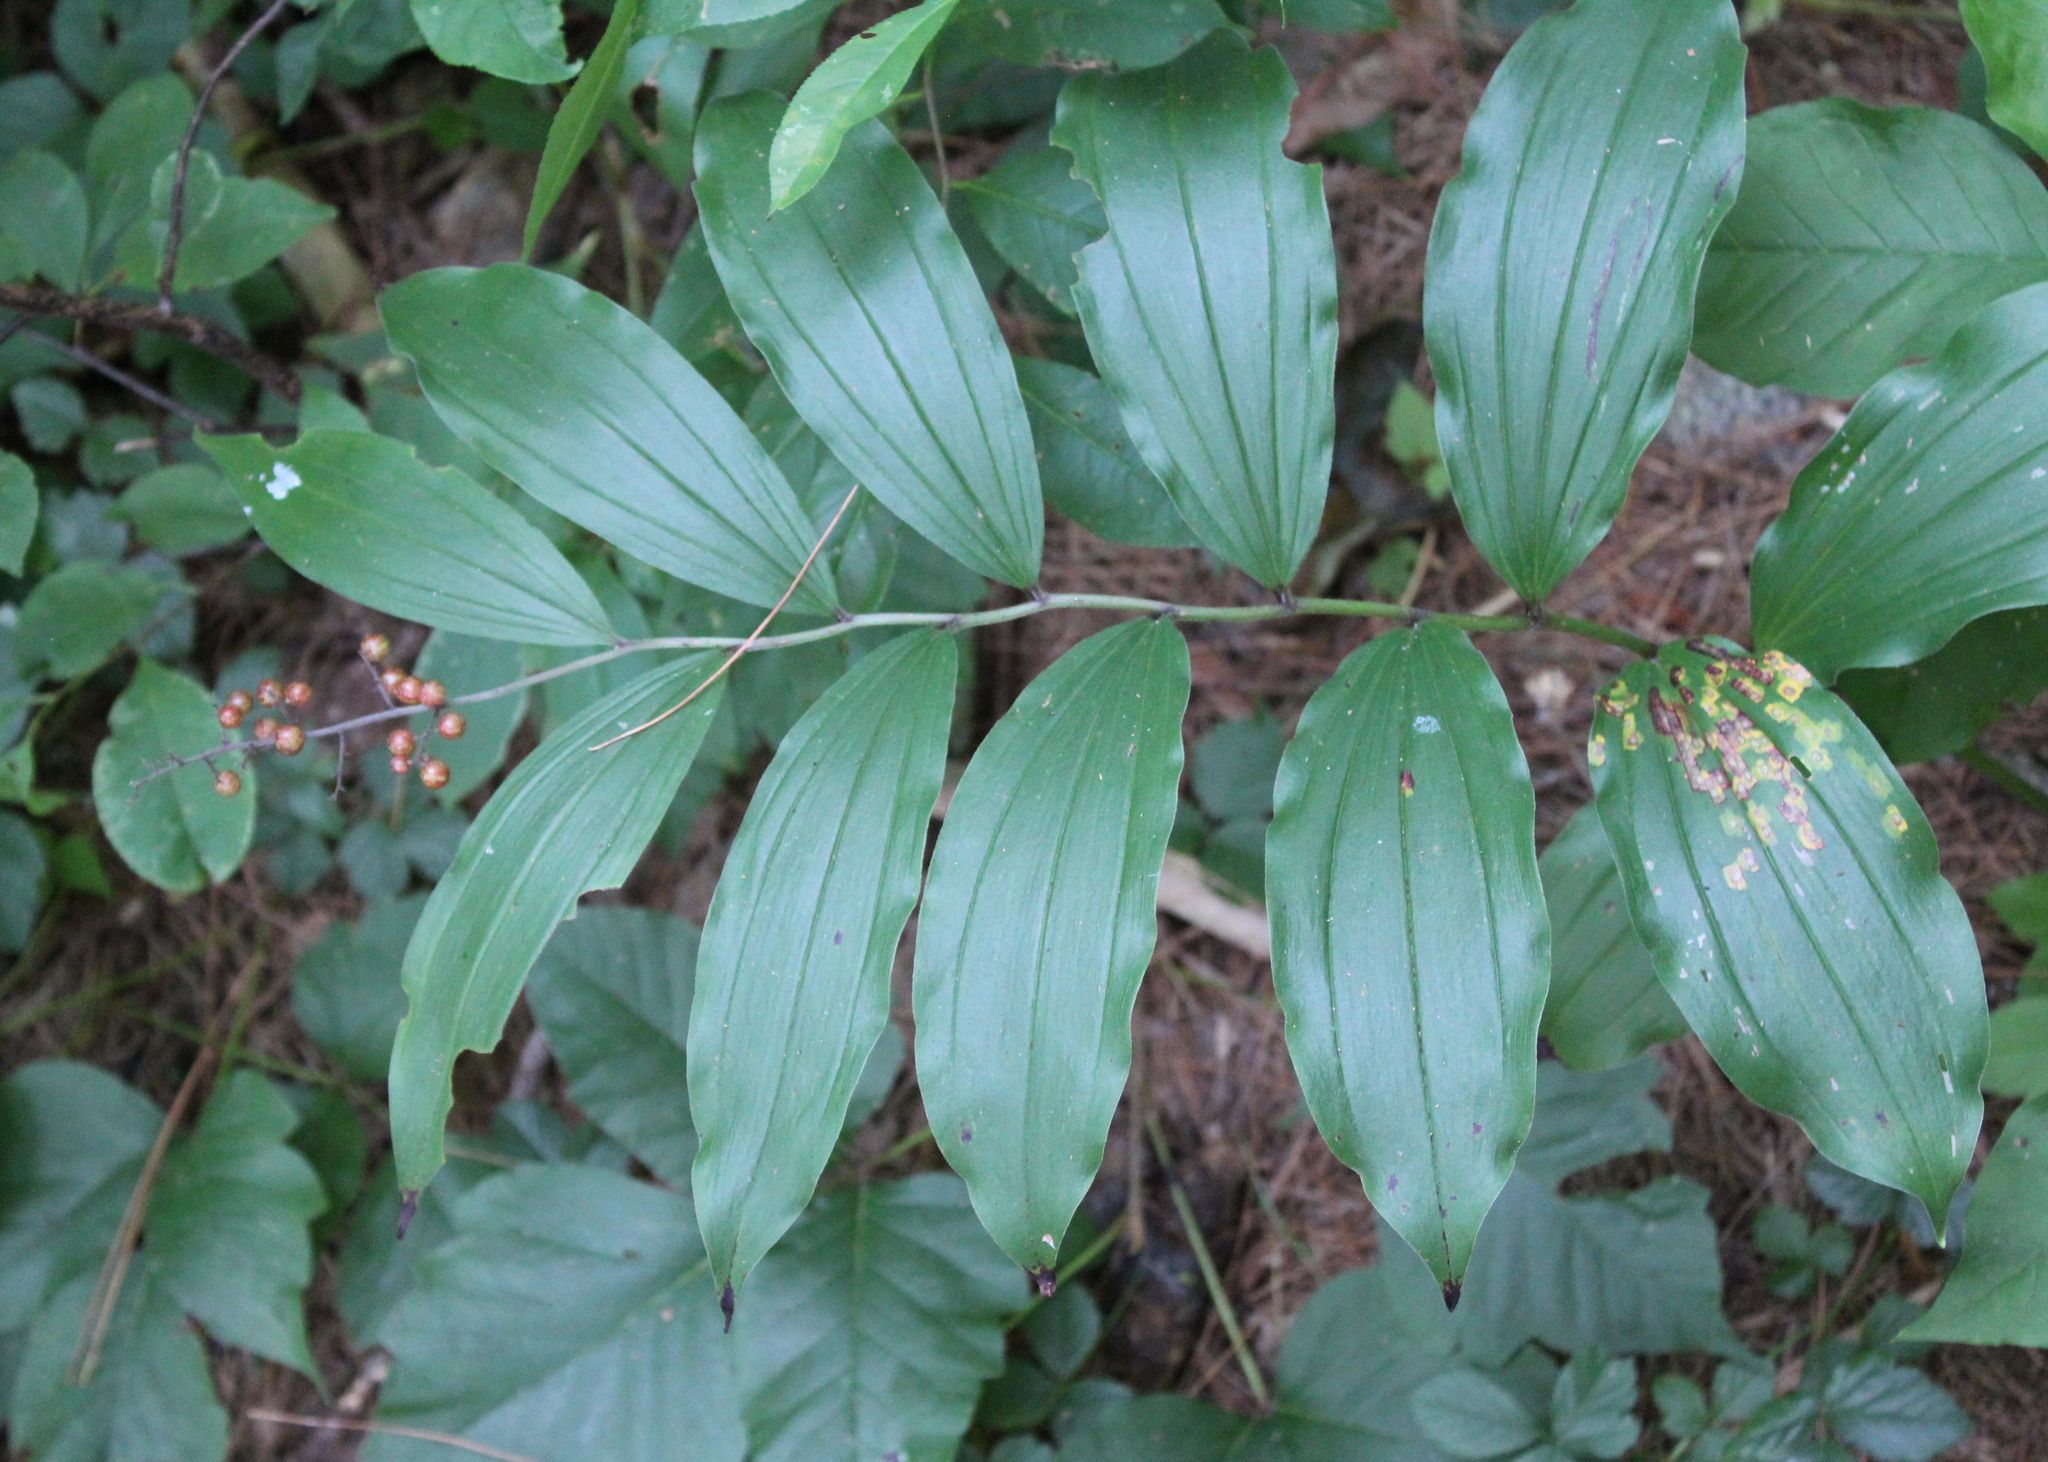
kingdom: Plantae
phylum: Tracheophyta
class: Liliopsida
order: Asparagales
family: Asparagaceae
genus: Maianthemum
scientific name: Maianthemum racemosum
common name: False spikenard
